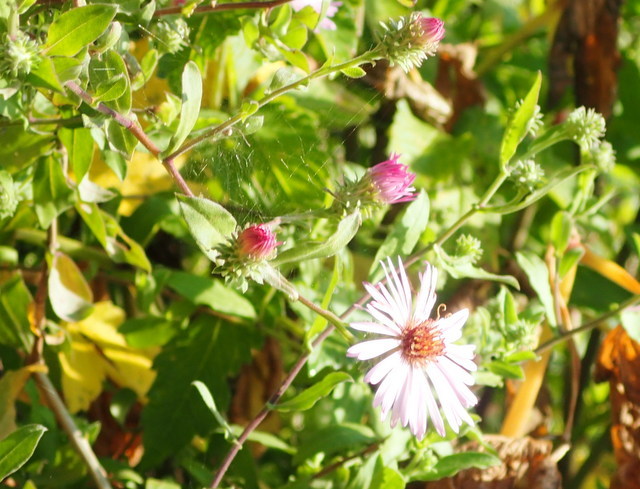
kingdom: Plantae
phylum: Tracheophyta
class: Magnoliopsida
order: Asterales
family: Asteraceae
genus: Ampelaster
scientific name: Ampelaster carolinianus
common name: Climbing aster
